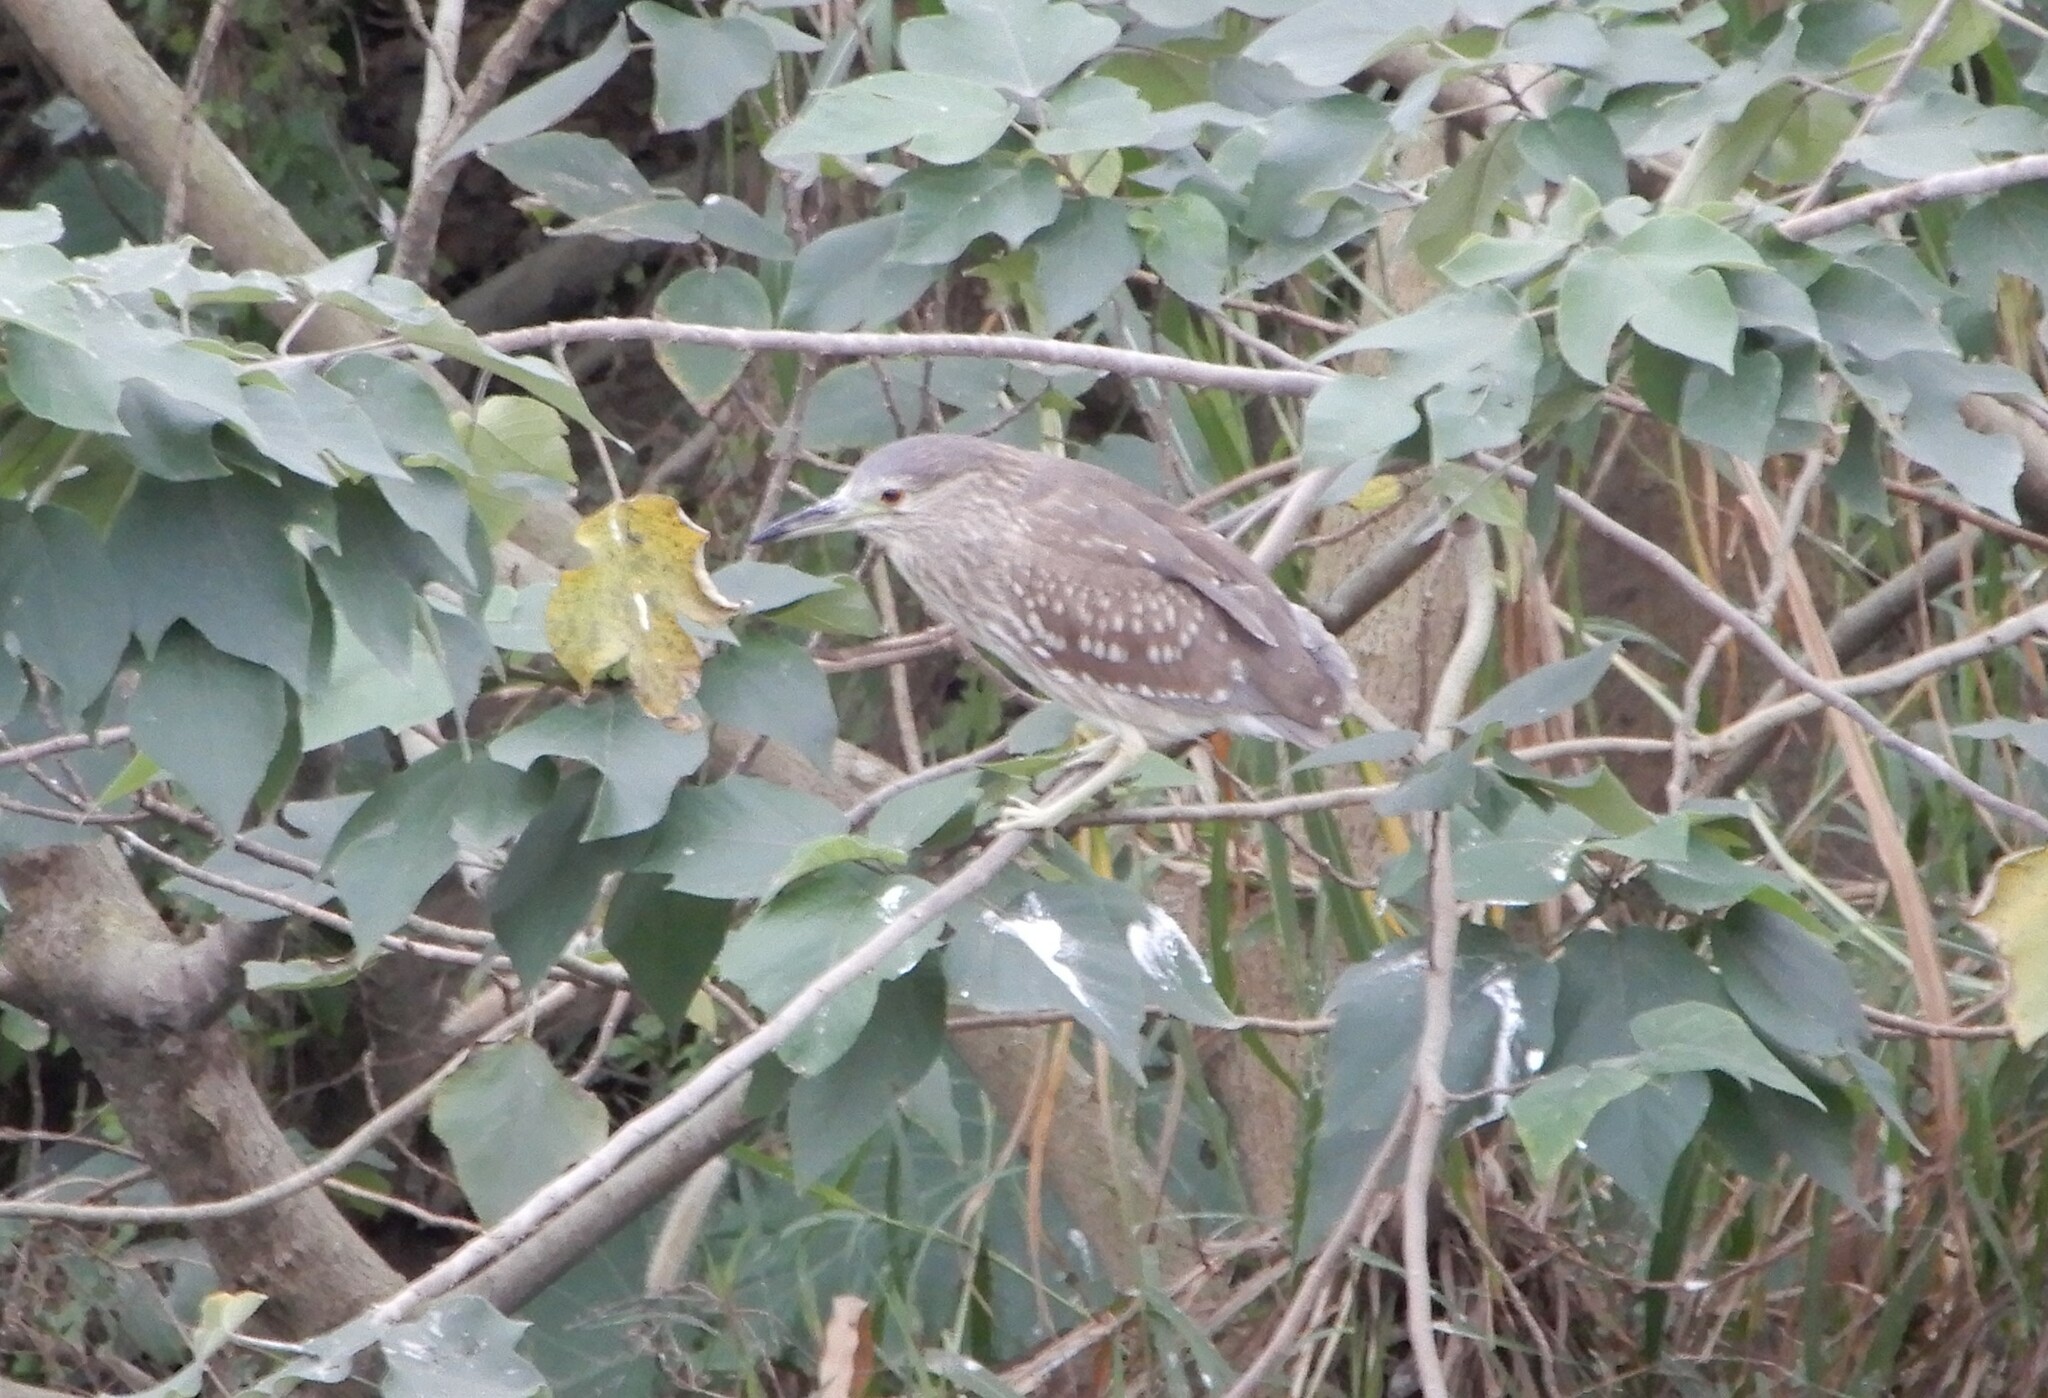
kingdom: Animalia
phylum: Chordata
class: Aves
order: Pelecaniformes
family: Ardeidae
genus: Nycticorax
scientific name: Nycticorax nycticorax
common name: Black-crowned night heron
